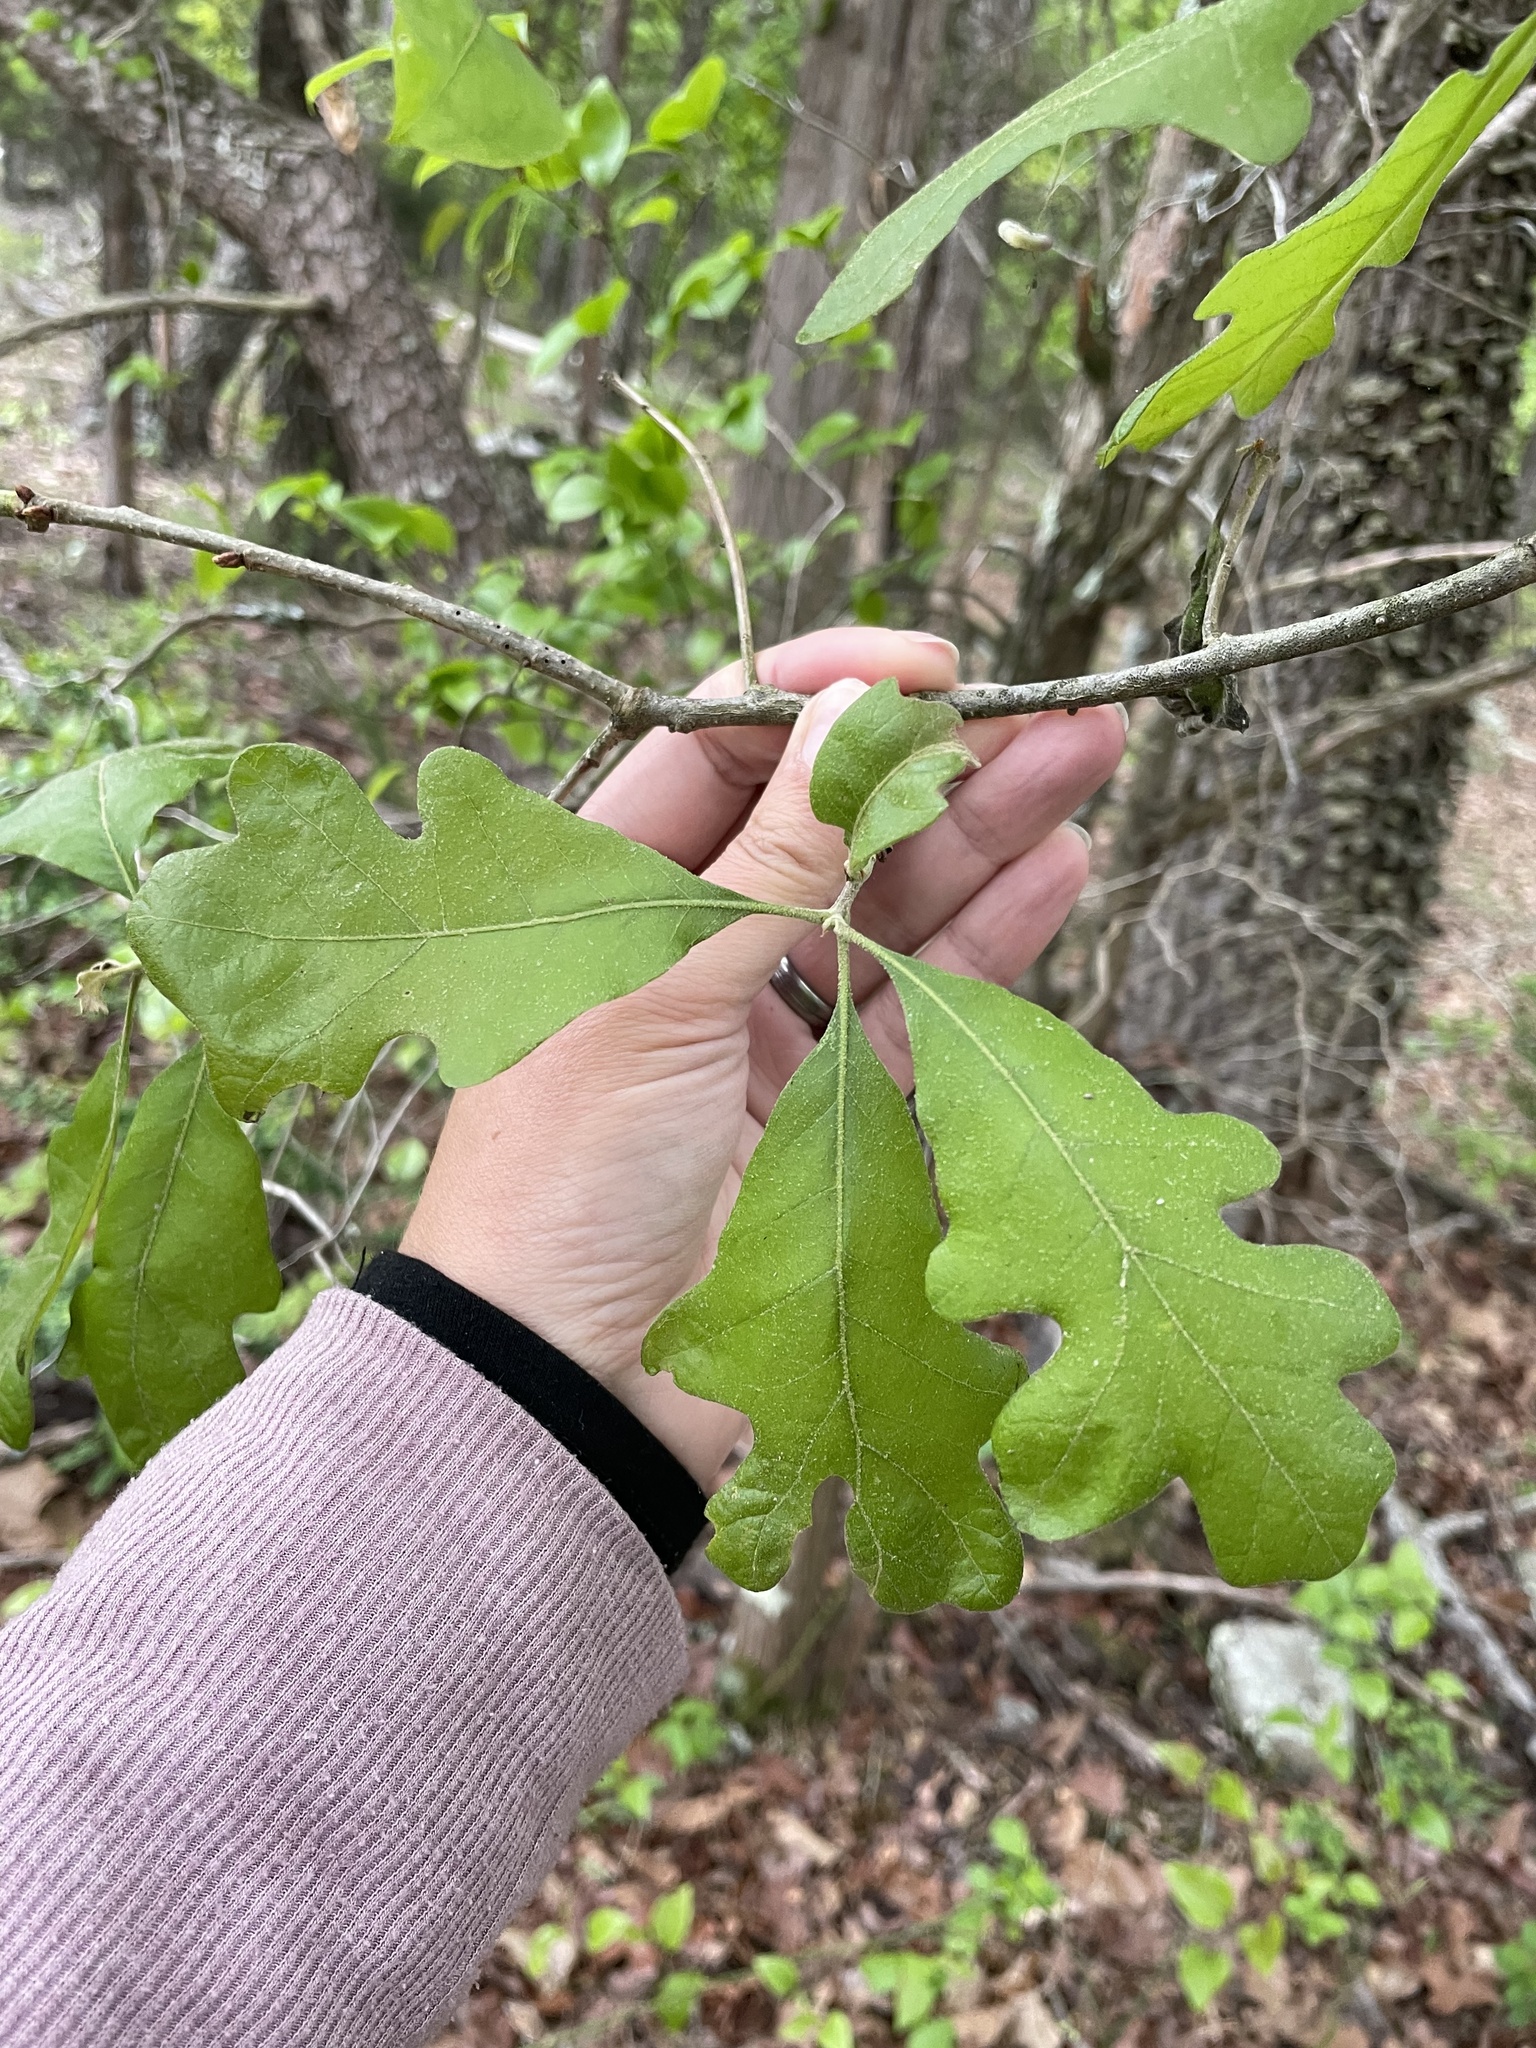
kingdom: Plantae
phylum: Tracheophyta
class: Magnoliopsida
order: Fagales
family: Fagaceae
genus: Quercus
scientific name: Quercus stellata
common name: Post oak
